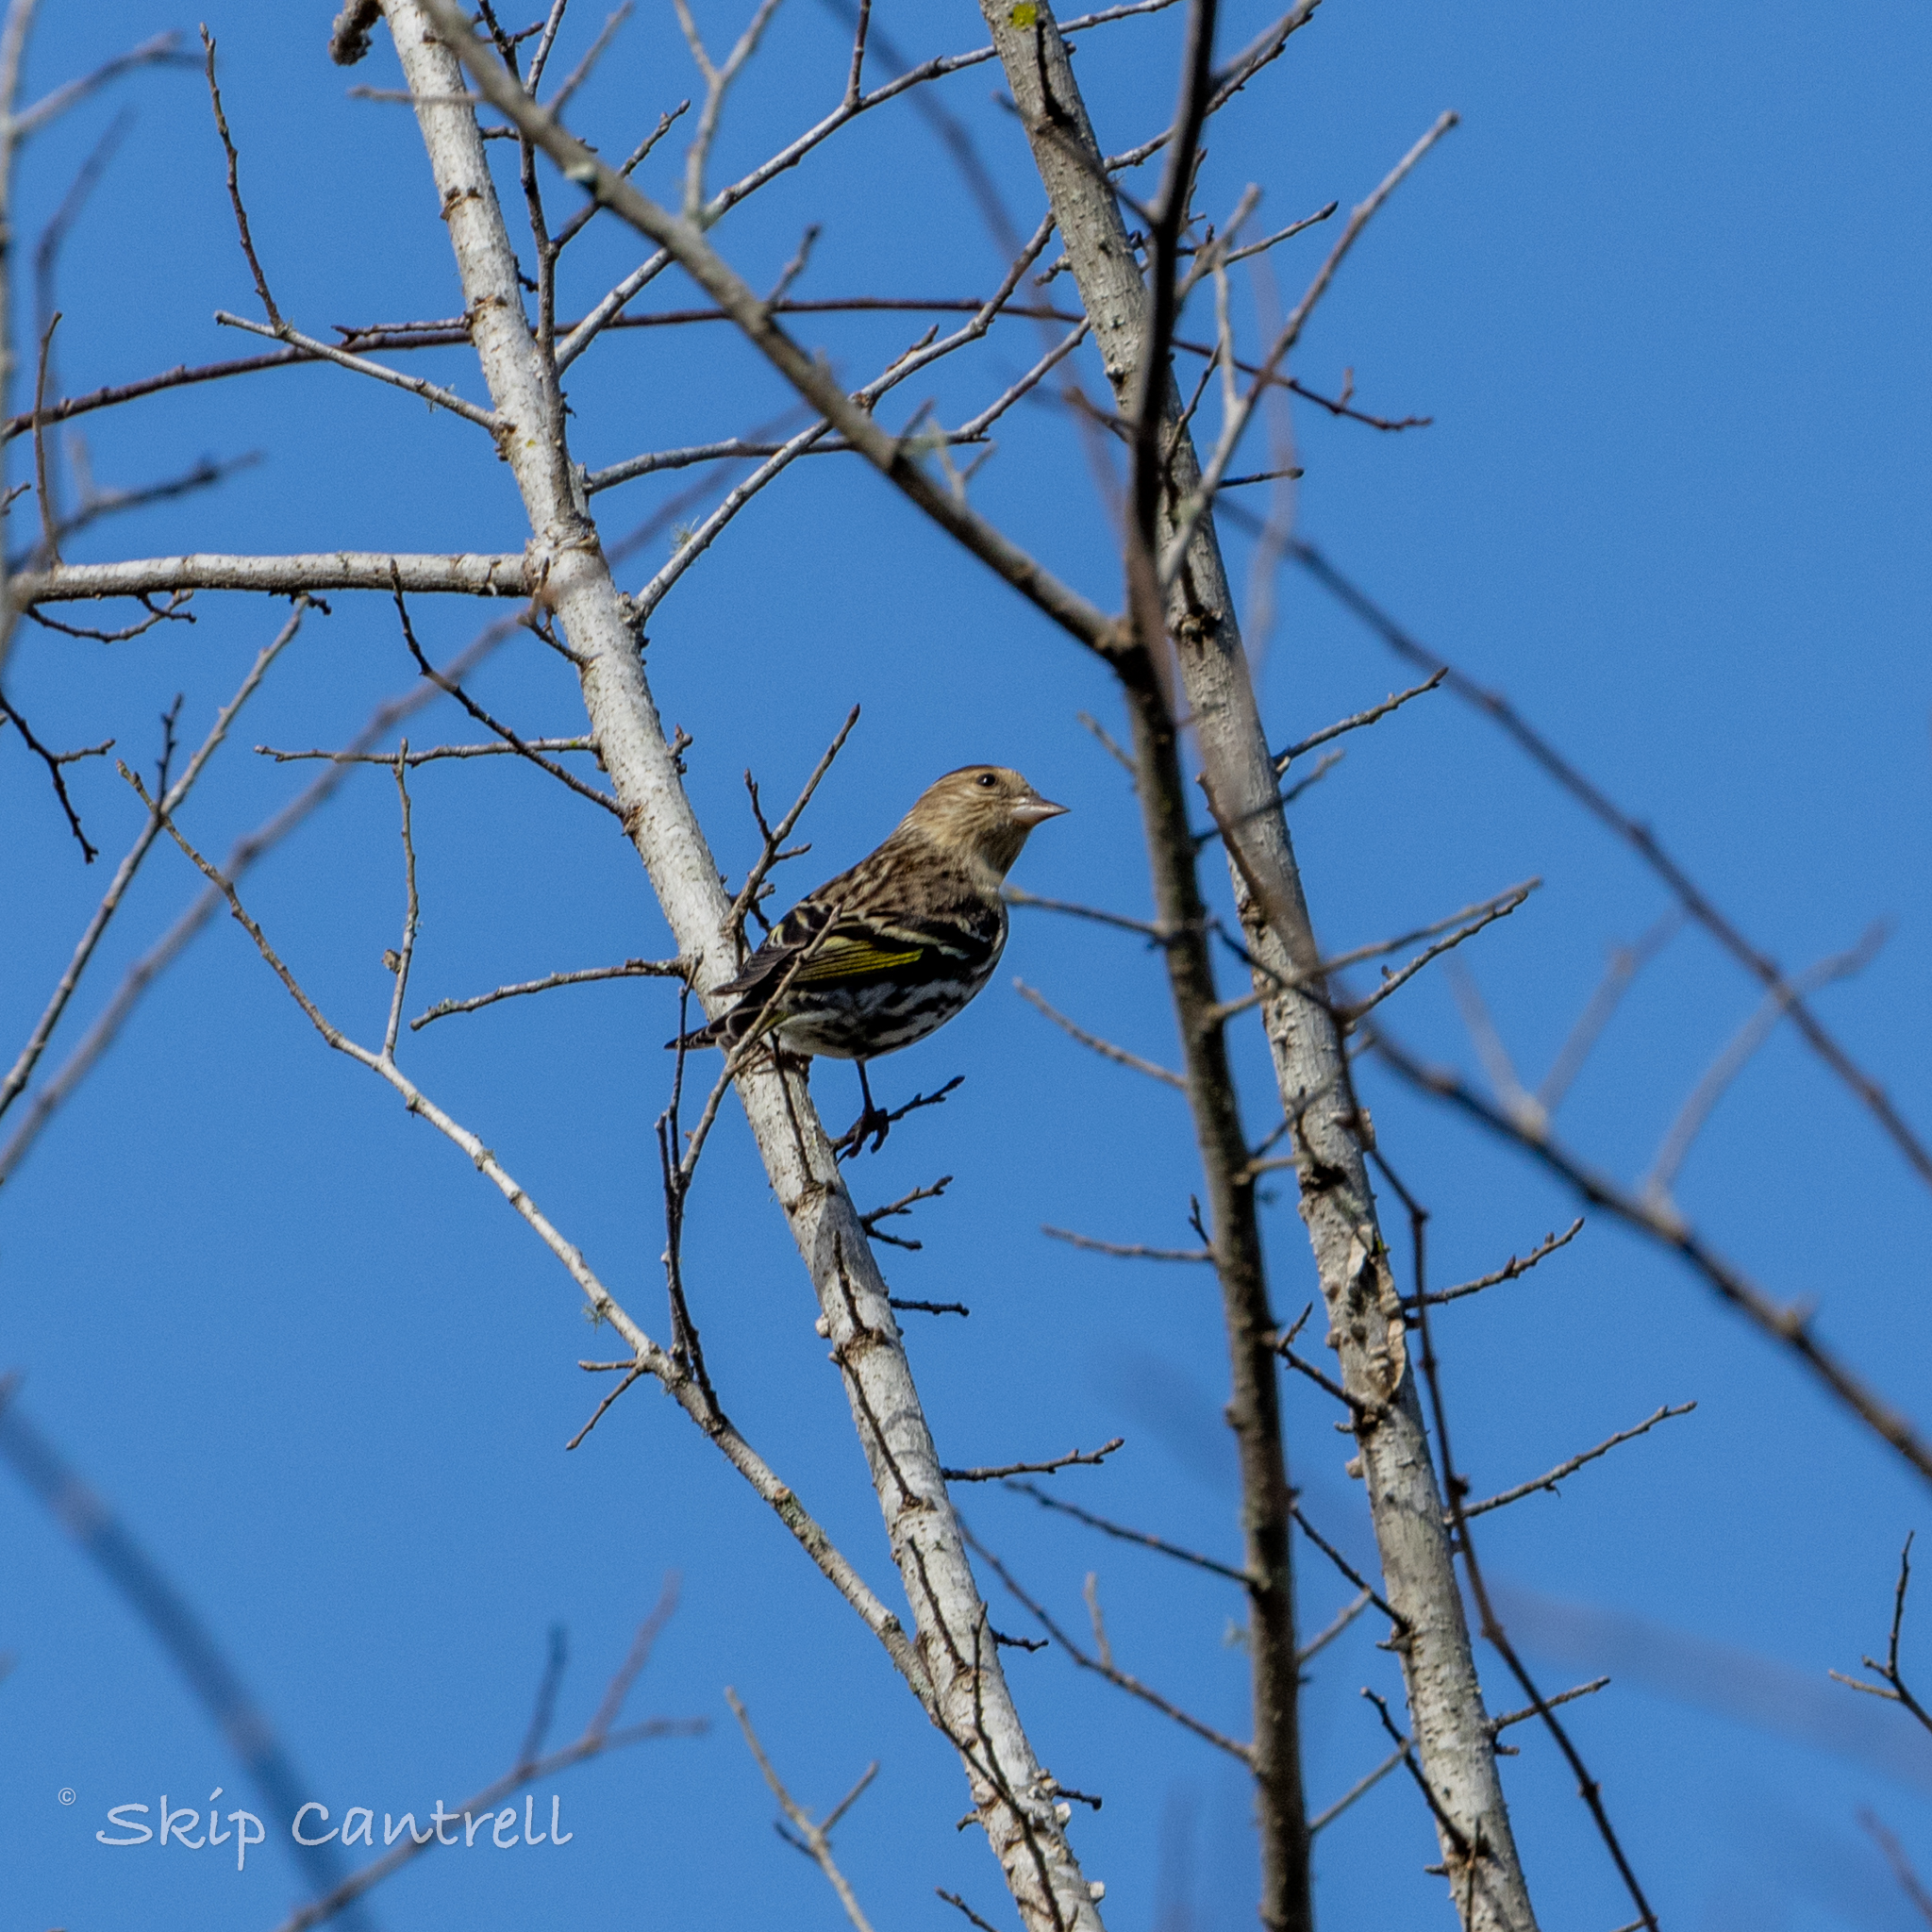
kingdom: Animalia
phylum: Chordata
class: Aves
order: Passeriformes
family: Fringillidae
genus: Spinus
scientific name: Spinus pinus
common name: Pine siskin
